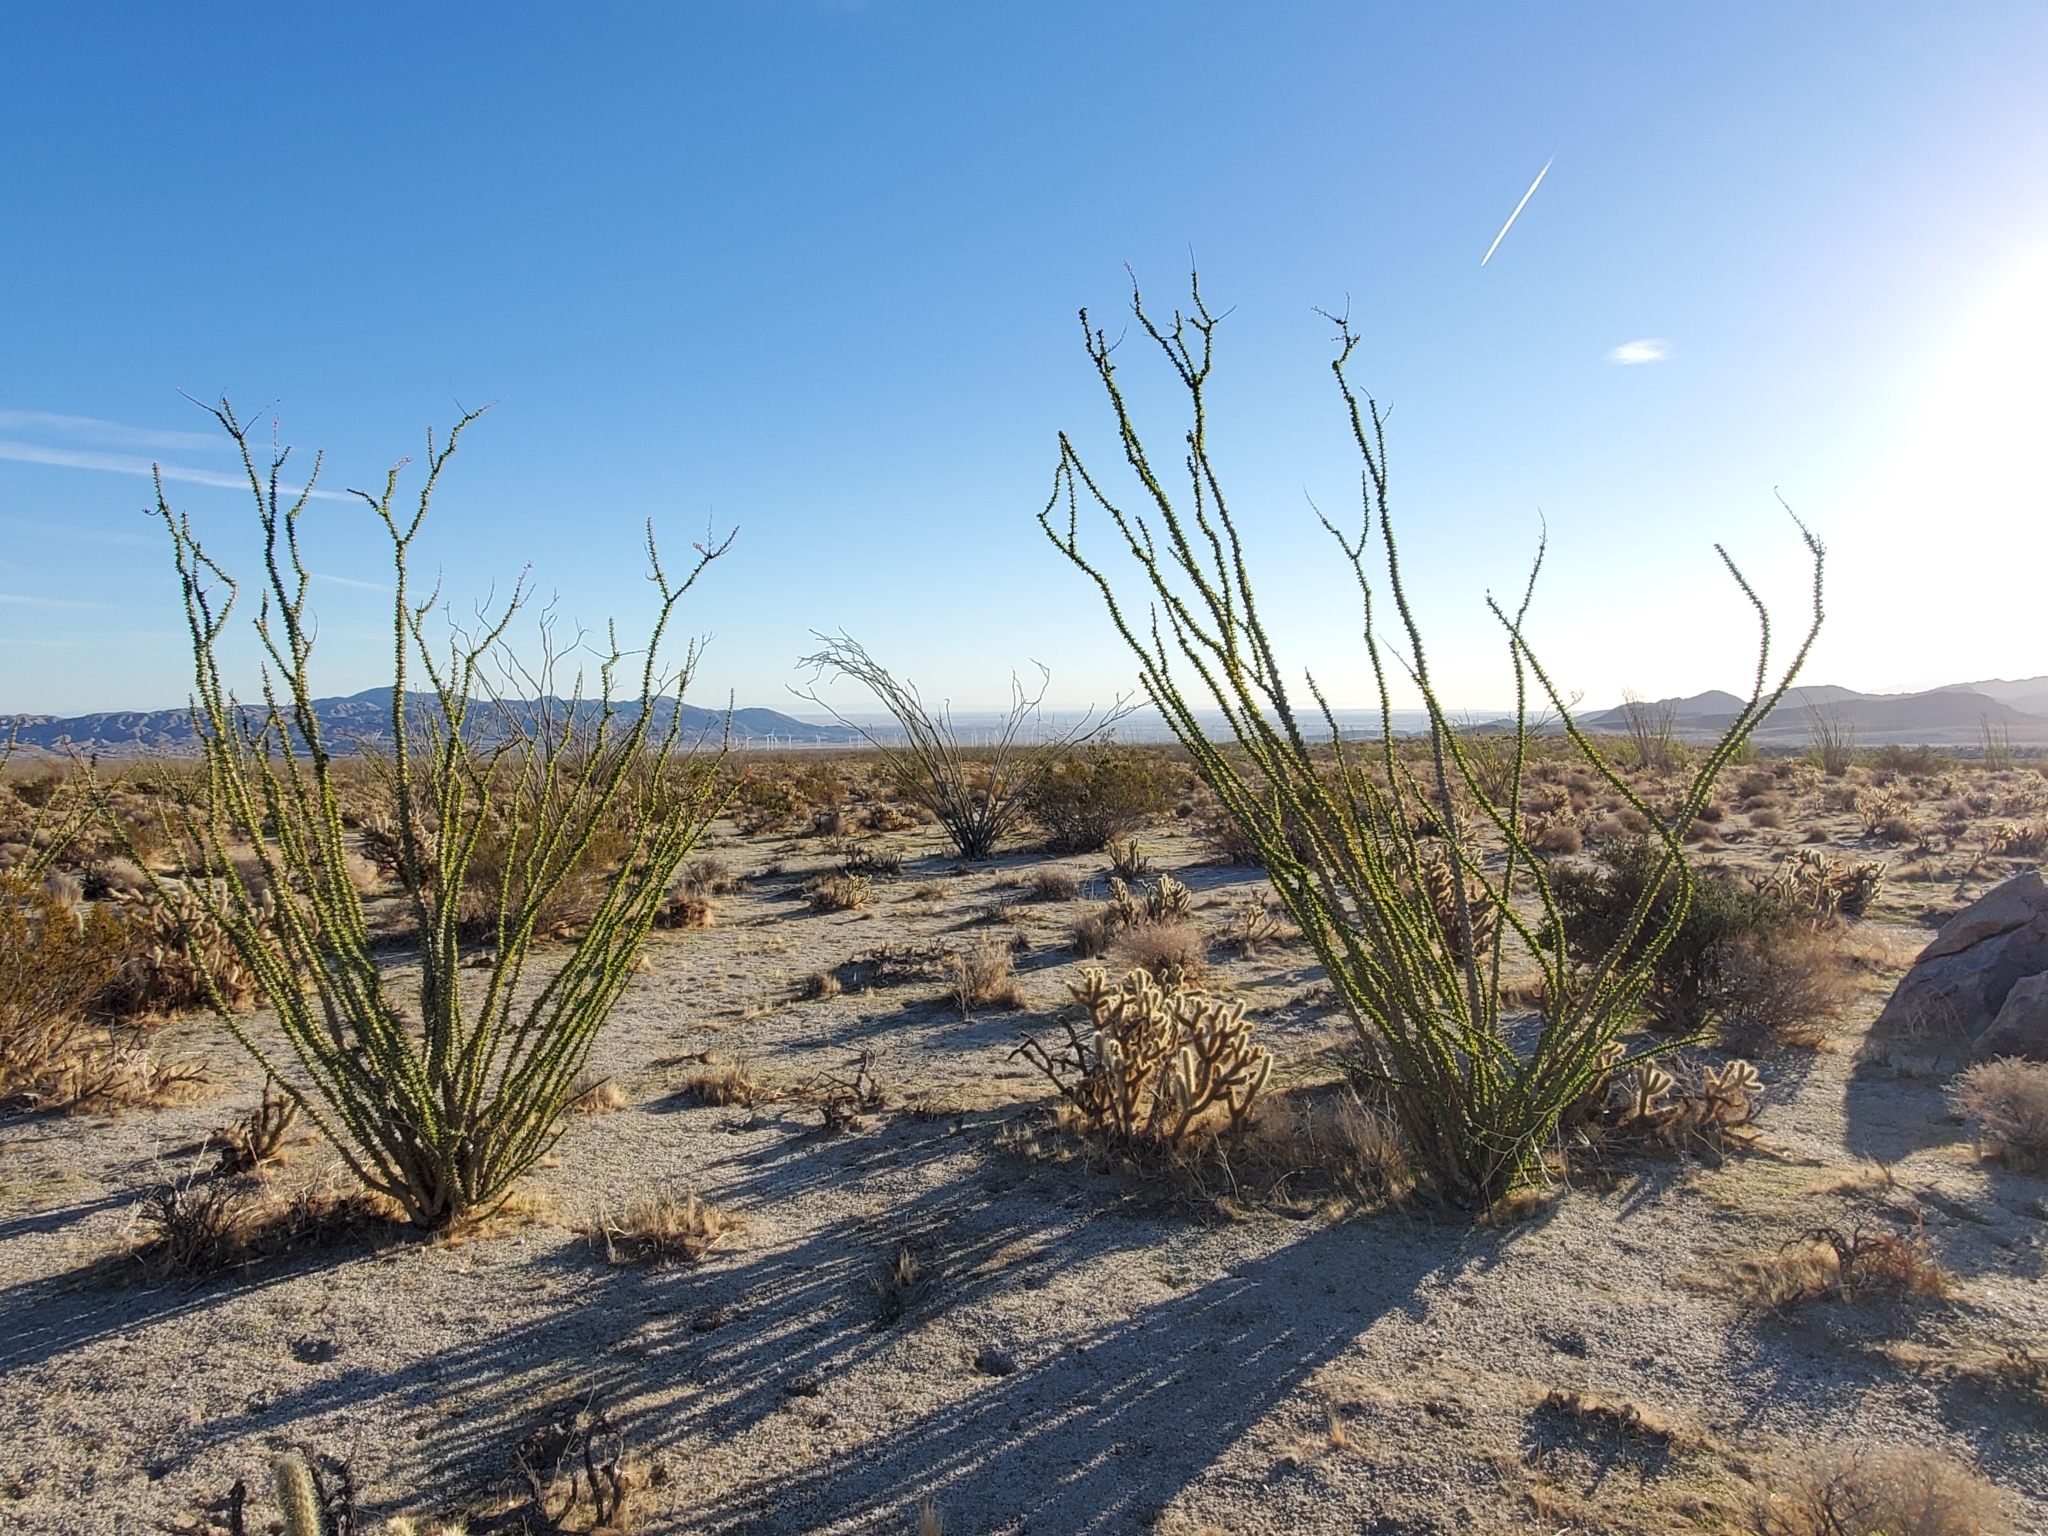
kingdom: Plantae
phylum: Tracheophyta
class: Magnoliopsida
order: Ericales
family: Fouquieriaceae
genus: Fouquieria
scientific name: Fouquieria splendens
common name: Vine-cactus
